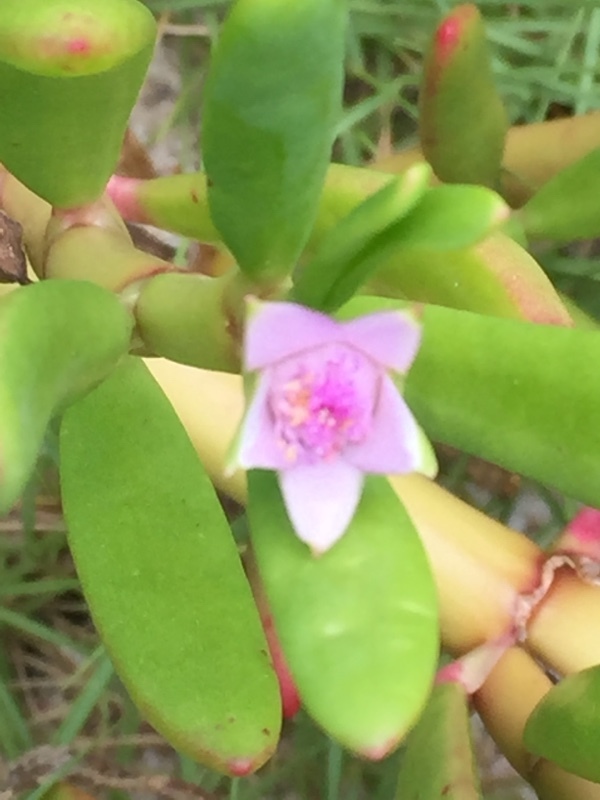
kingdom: Plantae
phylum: Tracheophyta
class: Magnoliopsida
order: Caryophyllales
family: Aizoaceae
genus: Sesuvium
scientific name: Sesuvium portulacastrum
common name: Sea-purslane
